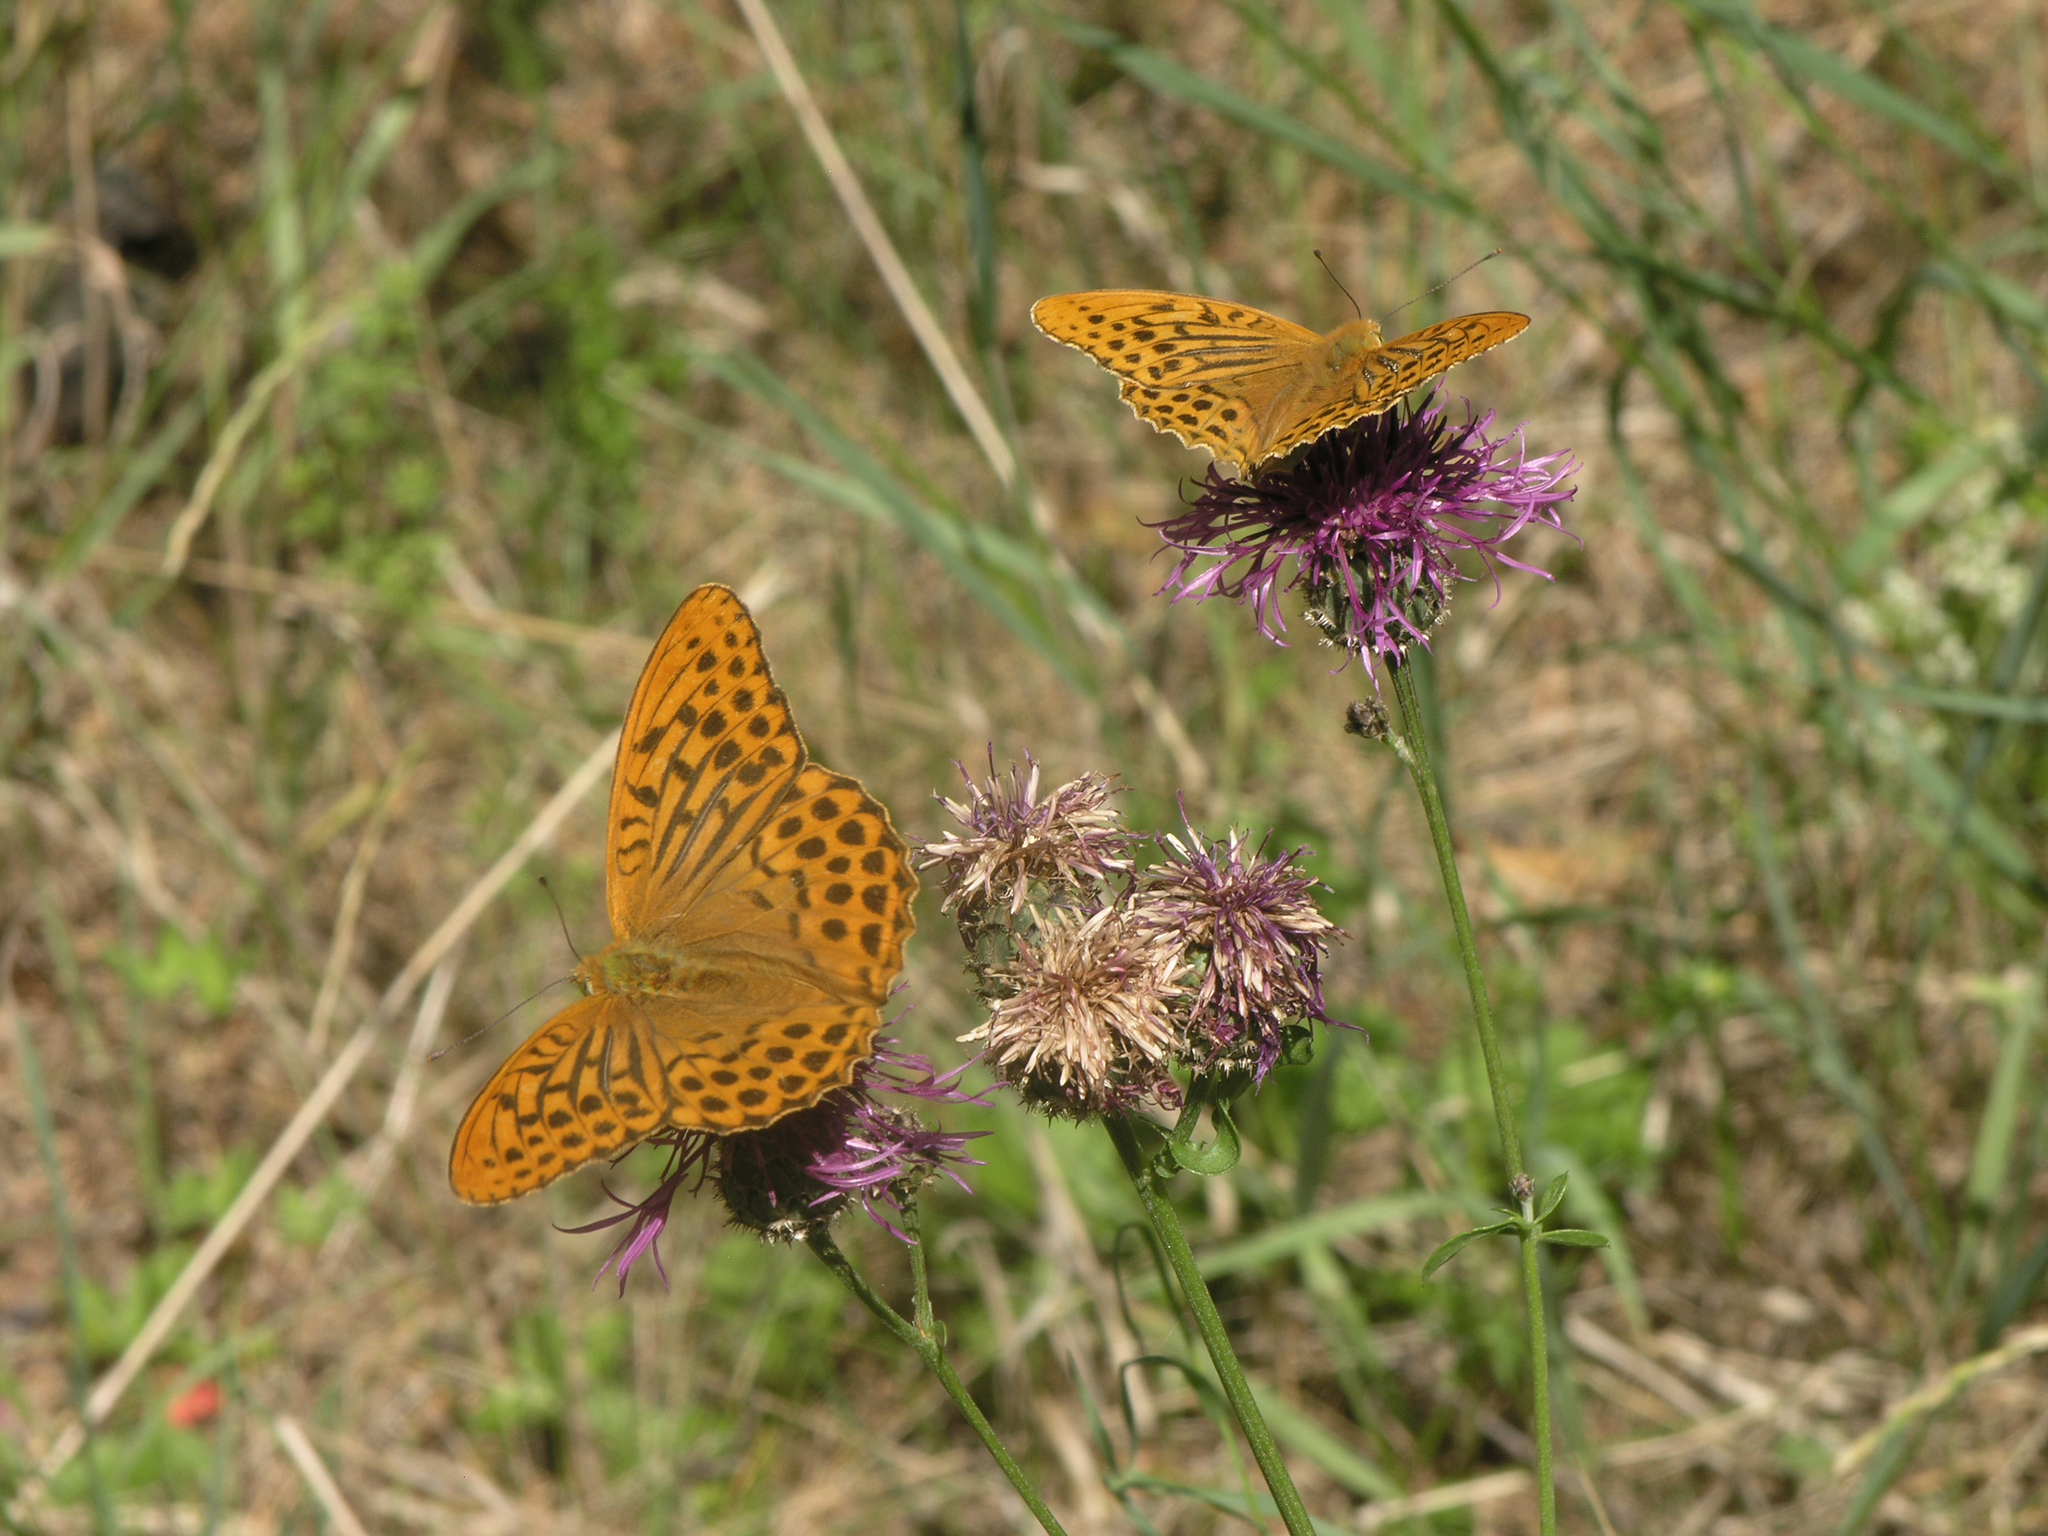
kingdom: Animalia
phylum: Arthropoda
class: Insecta
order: Lepidoptera
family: Nymphalidae
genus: Argynnis
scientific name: Argynnis paphia
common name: Silver-washed fritillary
